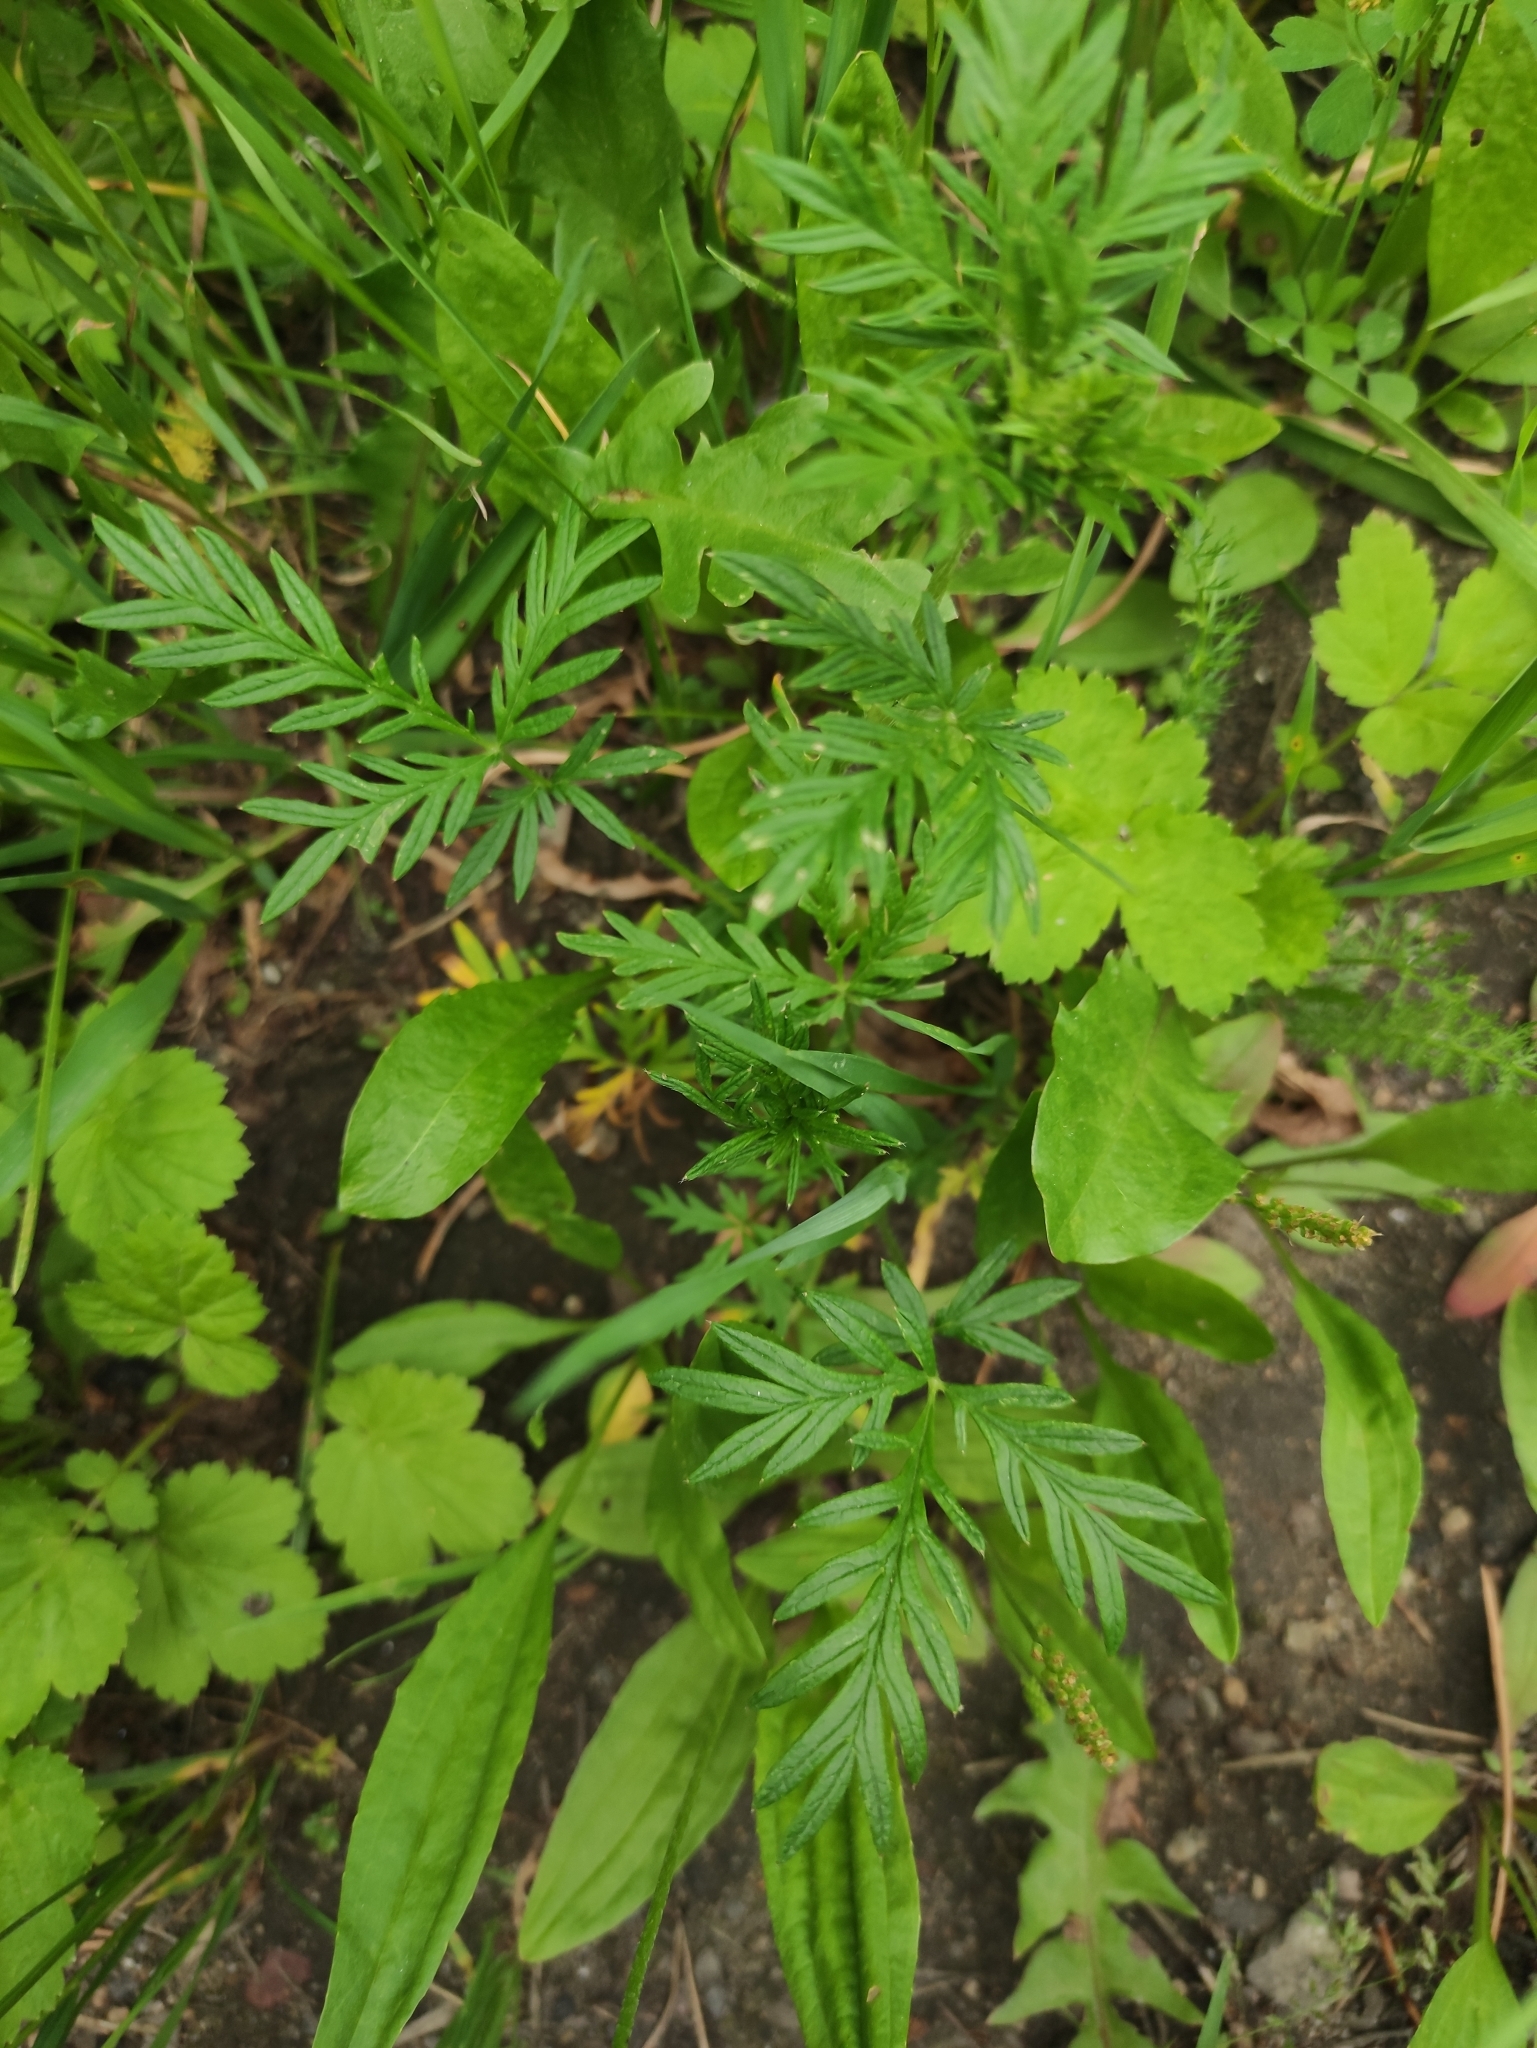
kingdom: Plantae
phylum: Tracheophyta
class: Magnoliopsida
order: Rosales
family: Rosaceae
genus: Potentilla
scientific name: Potentilla tergemina
